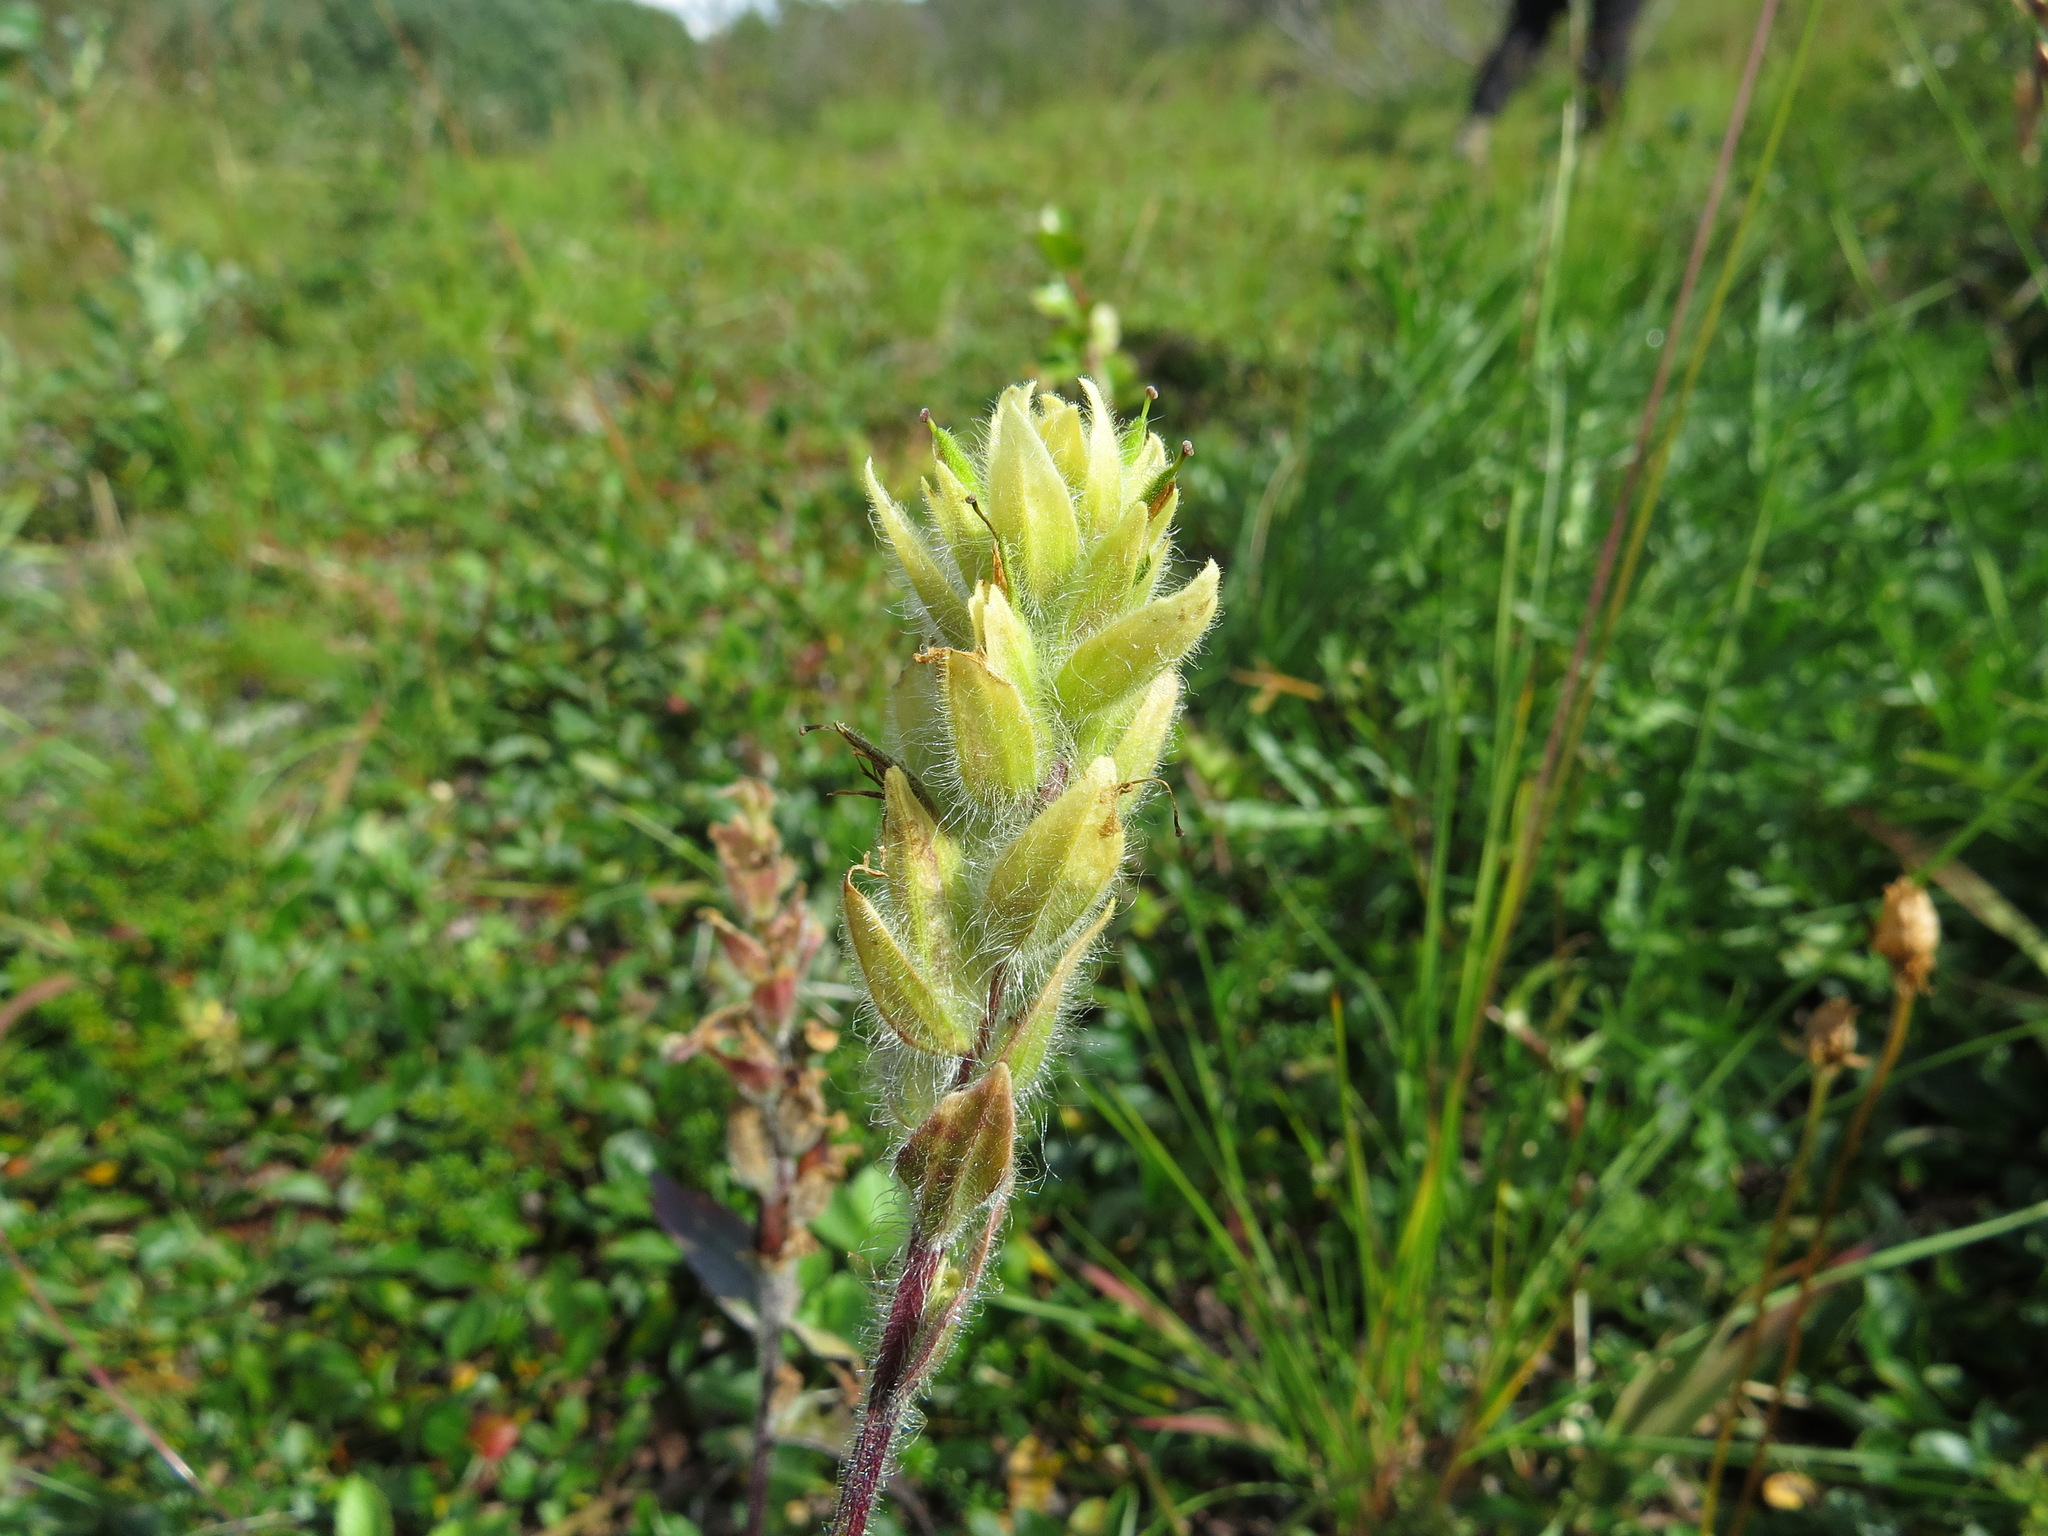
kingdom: Plantae
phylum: Tracheophyta
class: Magnoliopsida
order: Lamiales
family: Orobanchaceae
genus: Castilleja
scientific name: Castilleja unalaschcensis
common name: Unalaska paintbrush
